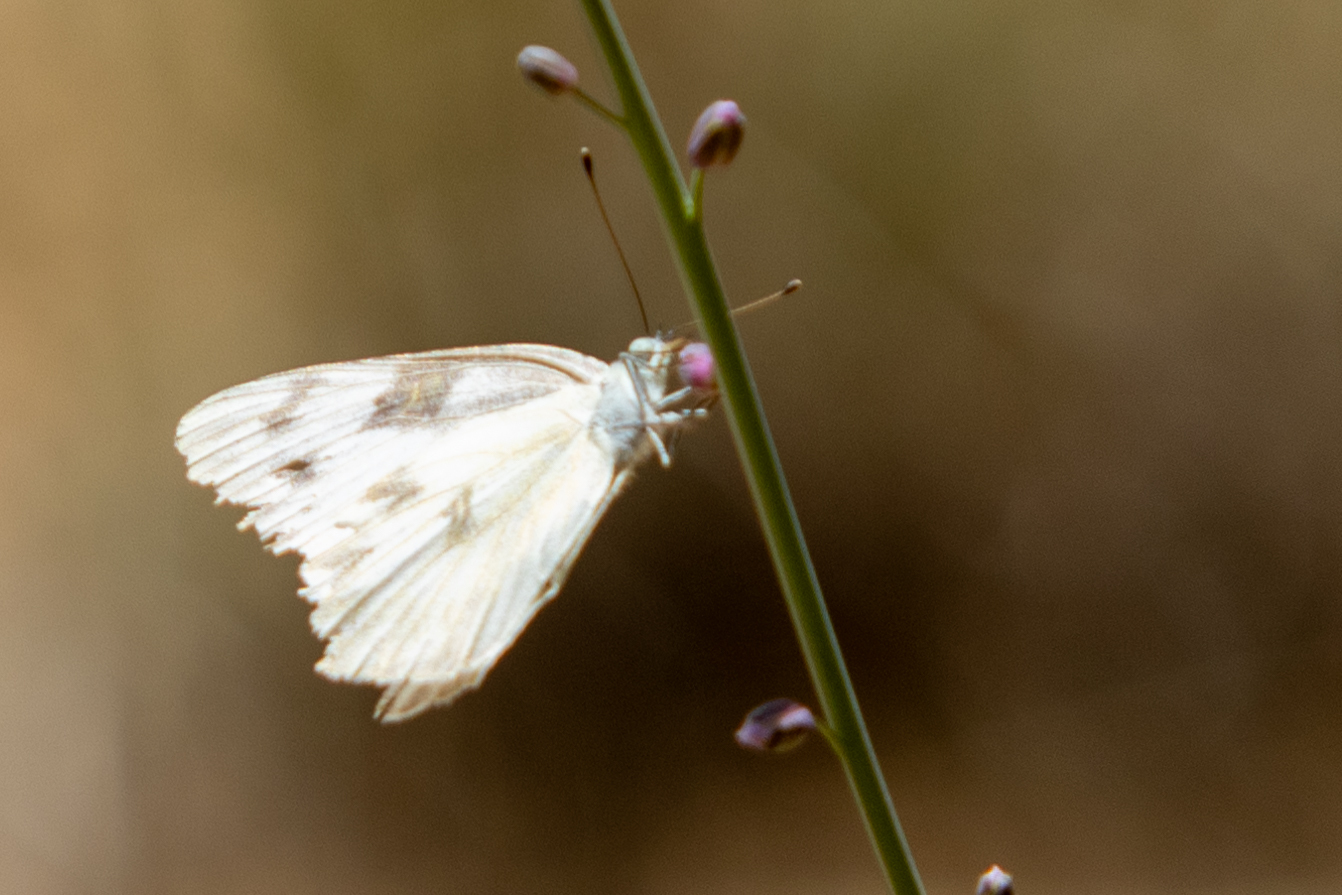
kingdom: Animalia
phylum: Arthropoda
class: Insecta
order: Lepidoptera
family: Pieridae
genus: Pontia
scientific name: Pontia protodice
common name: Checkered white
